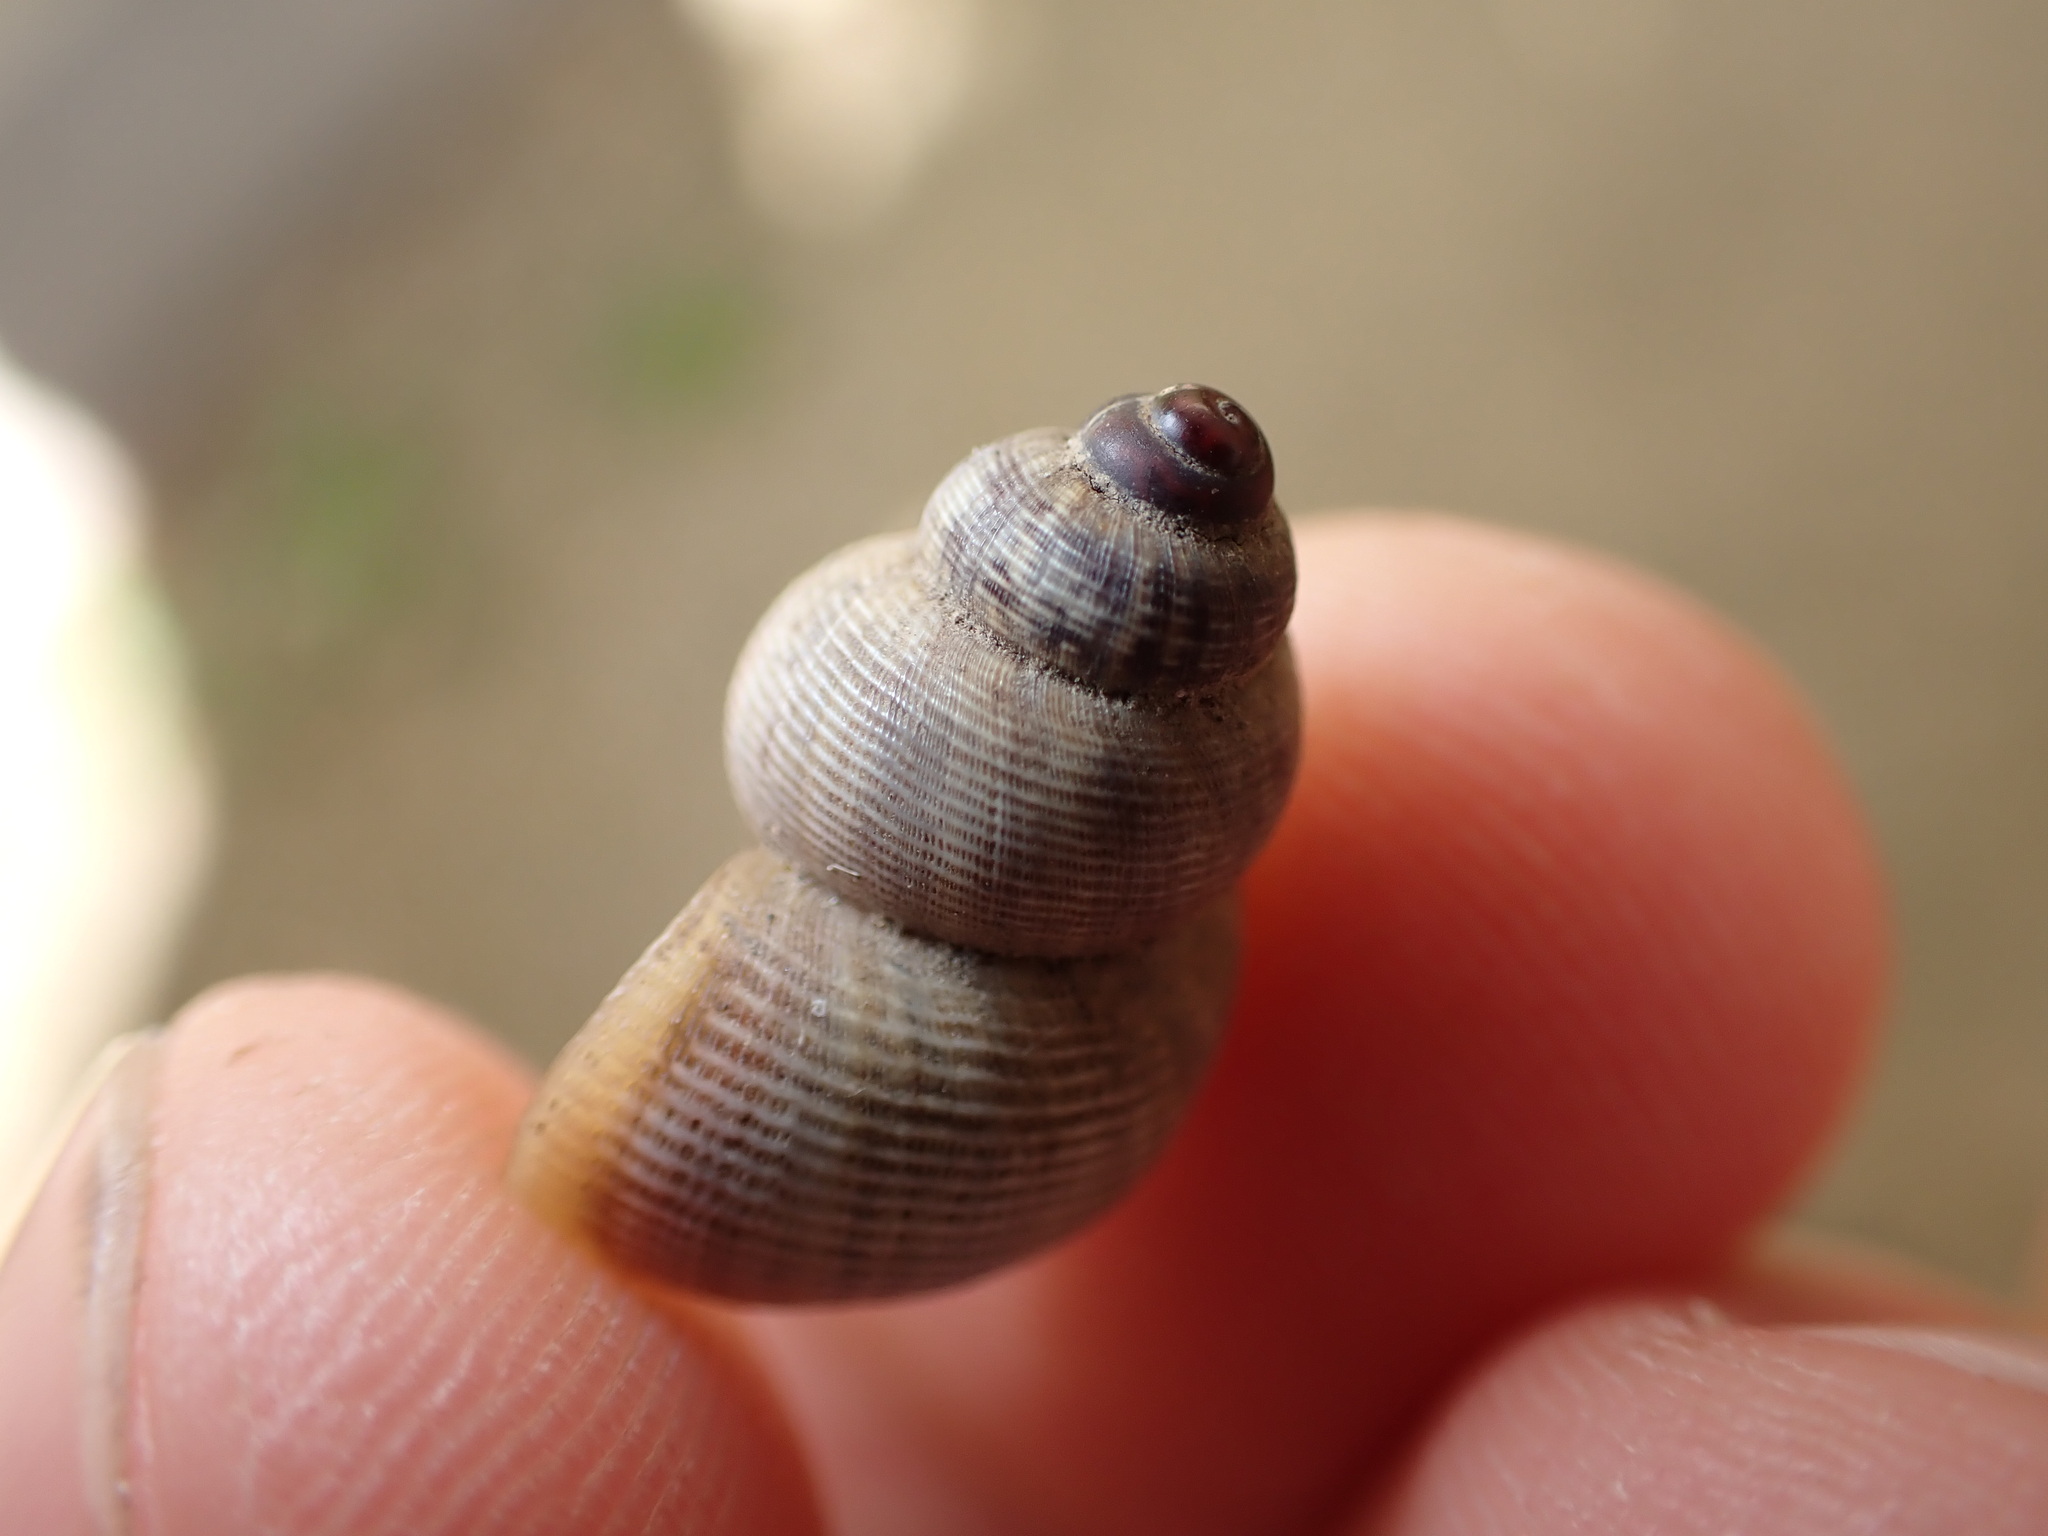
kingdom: Animalia
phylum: Mollusca
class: Gastropoda
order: Littorinimorpha
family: Pomatiidae
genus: Pomatias
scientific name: Pomatias elegans
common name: Red-mouthed snail
